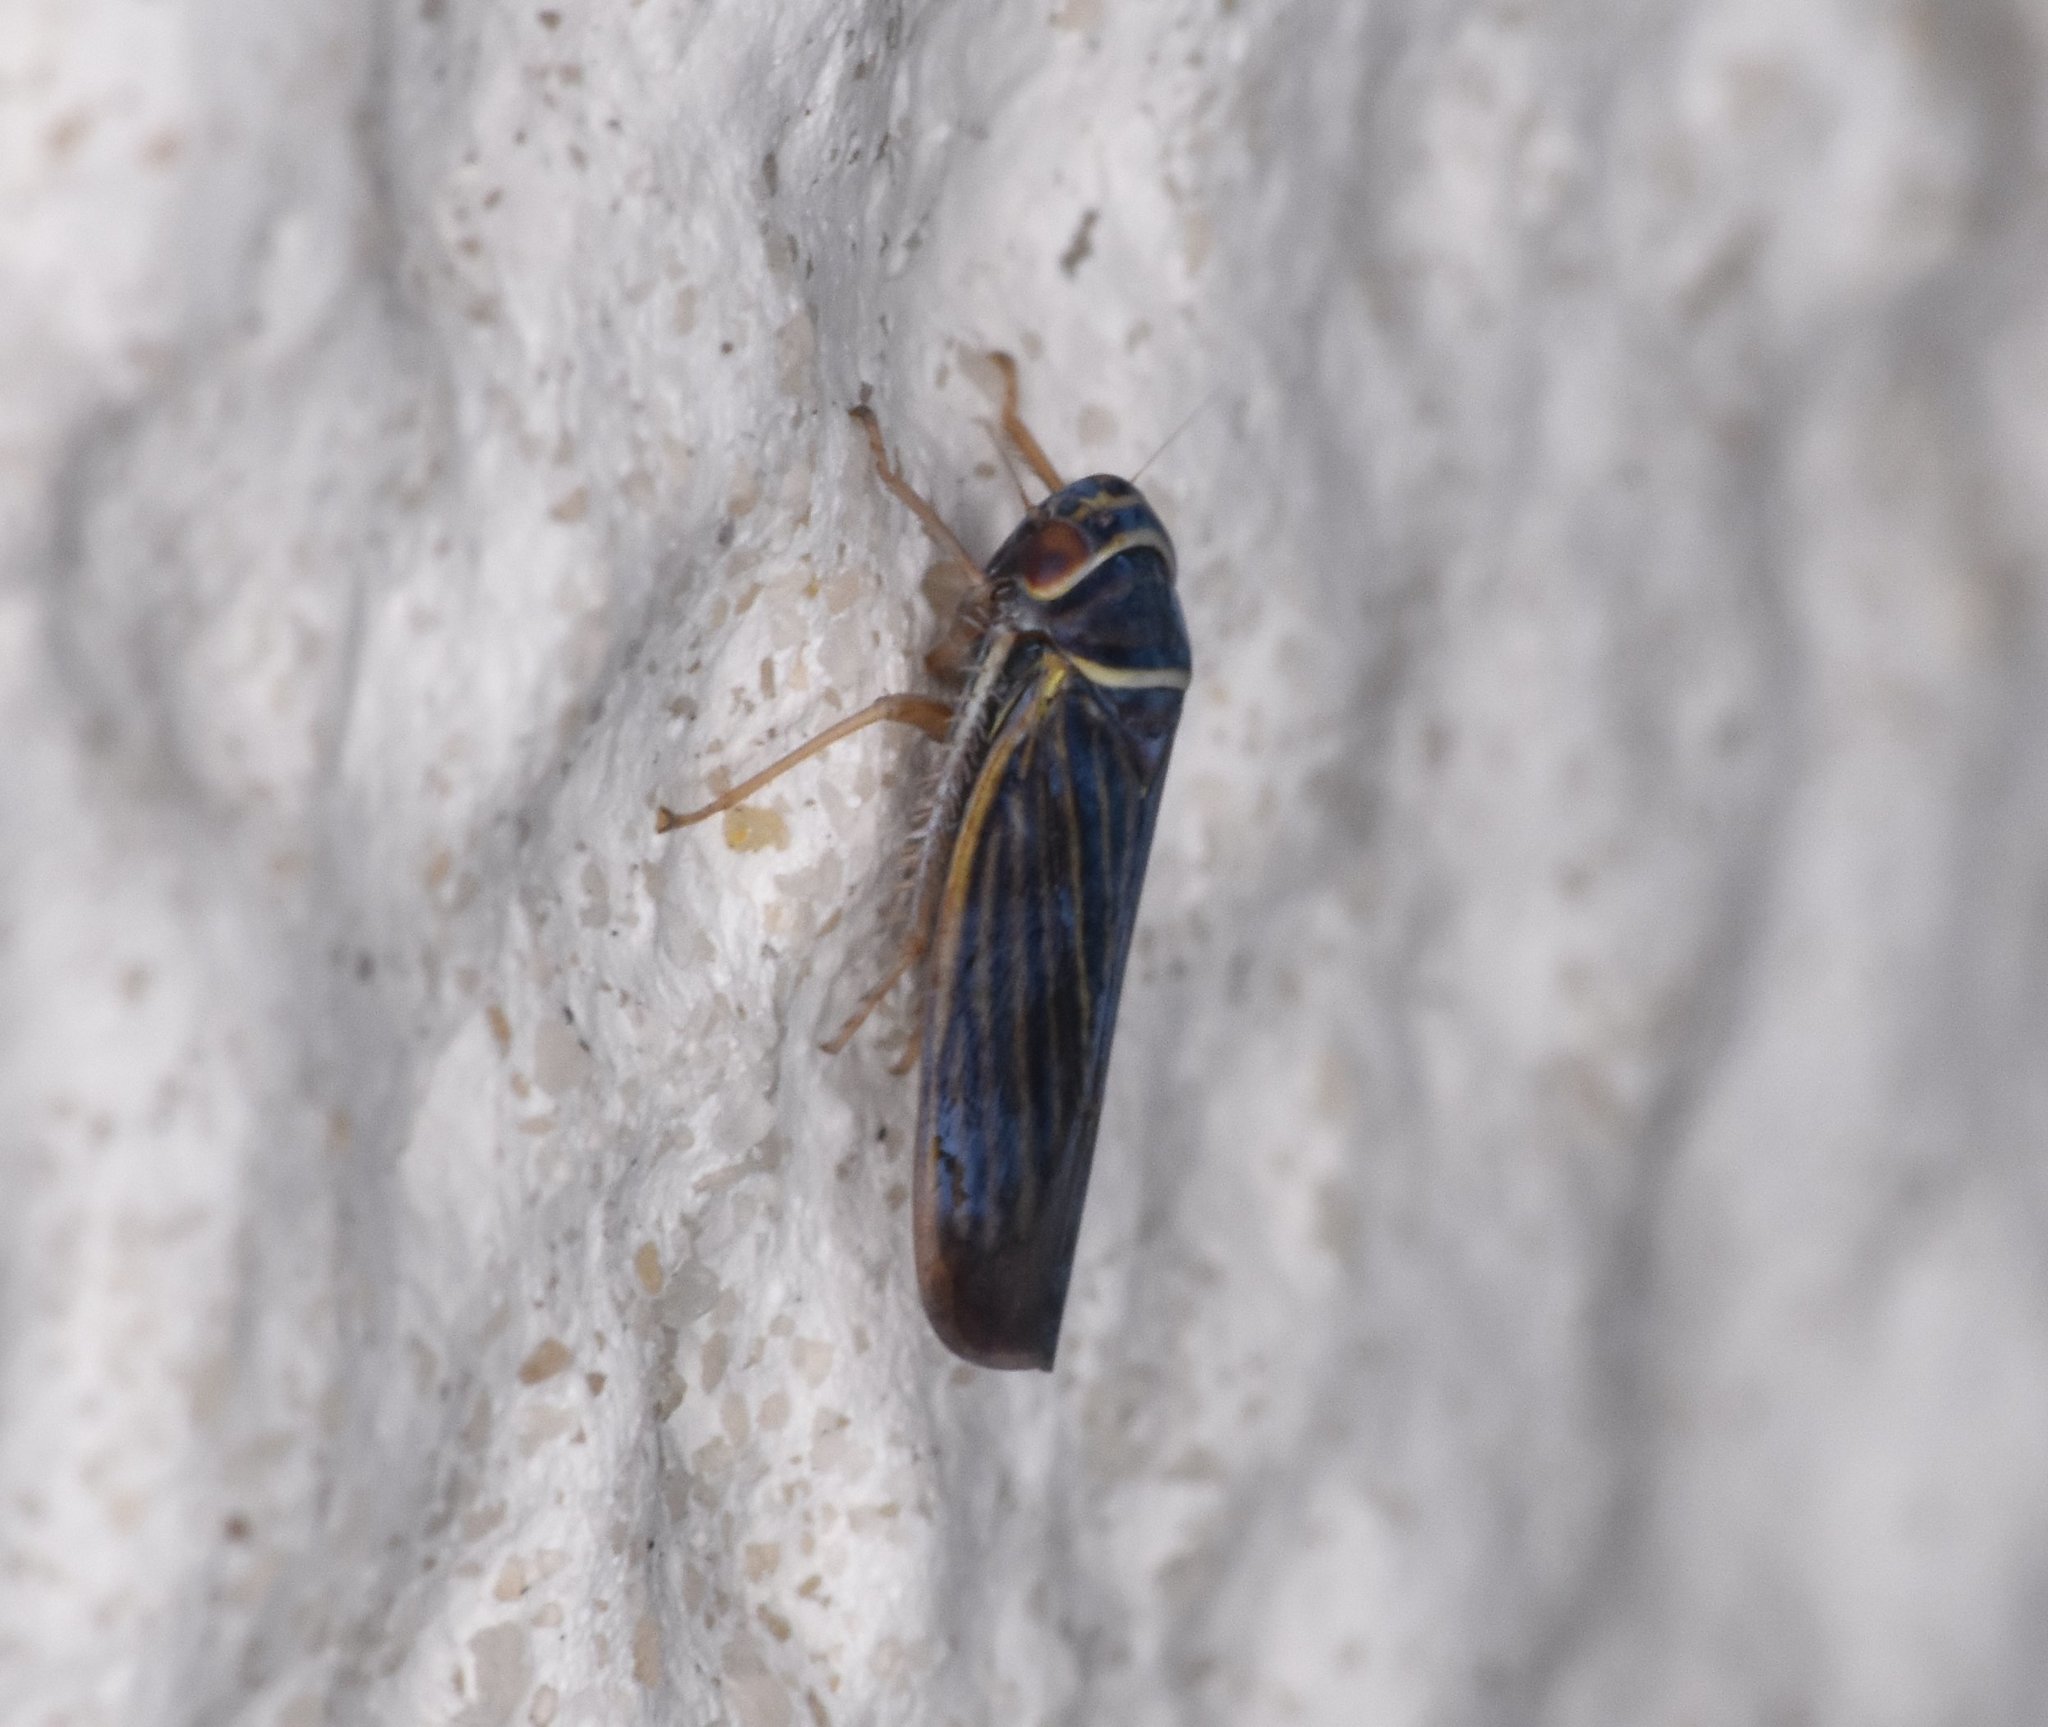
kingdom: Animalia
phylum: Arthropoda
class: Insecta
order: Hemiptera
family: Cicadellidae
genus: Tylozygus
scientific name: Tylozygus bifidus
